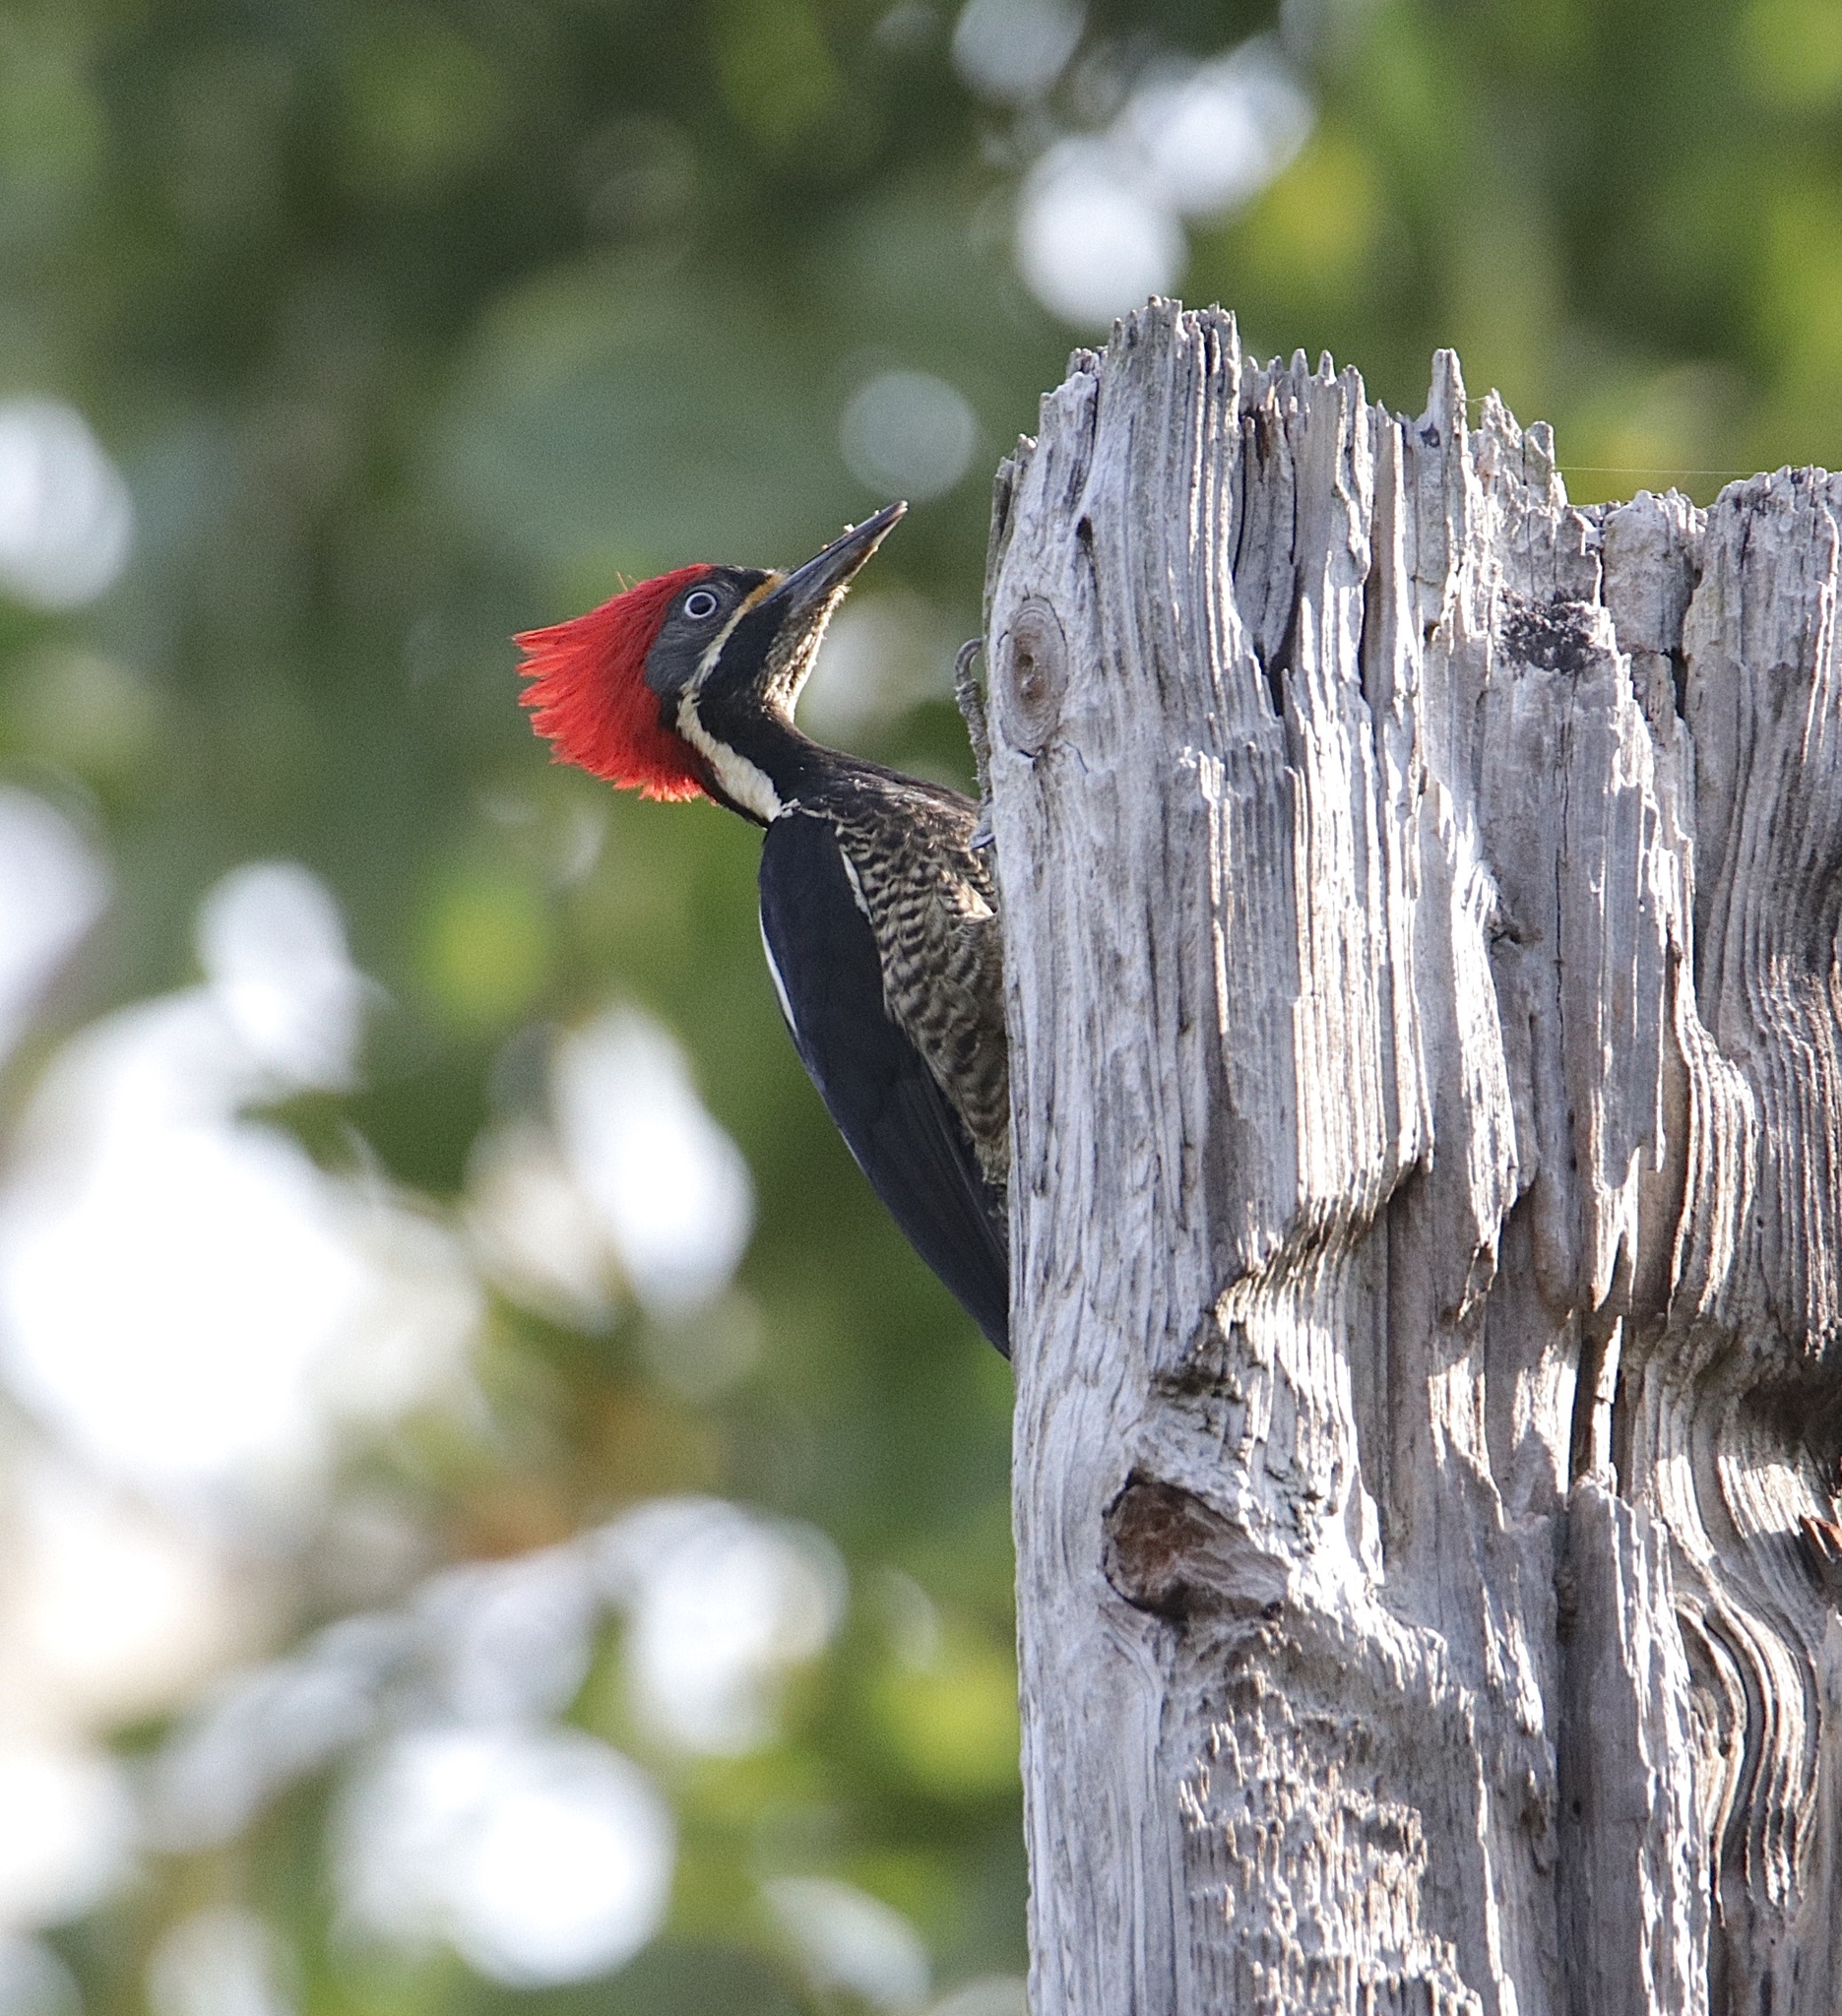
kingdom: Animalia
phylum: Chordata
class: Aves
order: Piciformes
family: Picidae
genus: Dryocopus
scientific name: Dryocopus lineatus
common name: Lineated woodpecker
